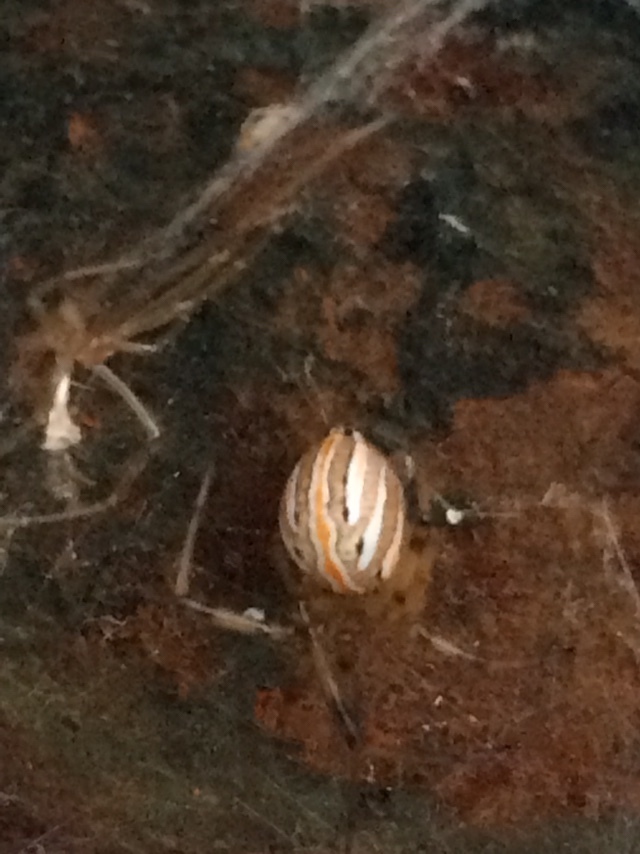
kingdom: Animalia
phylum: Arthropoda
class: Arachnida
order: Araneae
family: Theridiidae
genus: Latrodectus
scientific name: Latrodectus hesperus
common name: Western black widow
